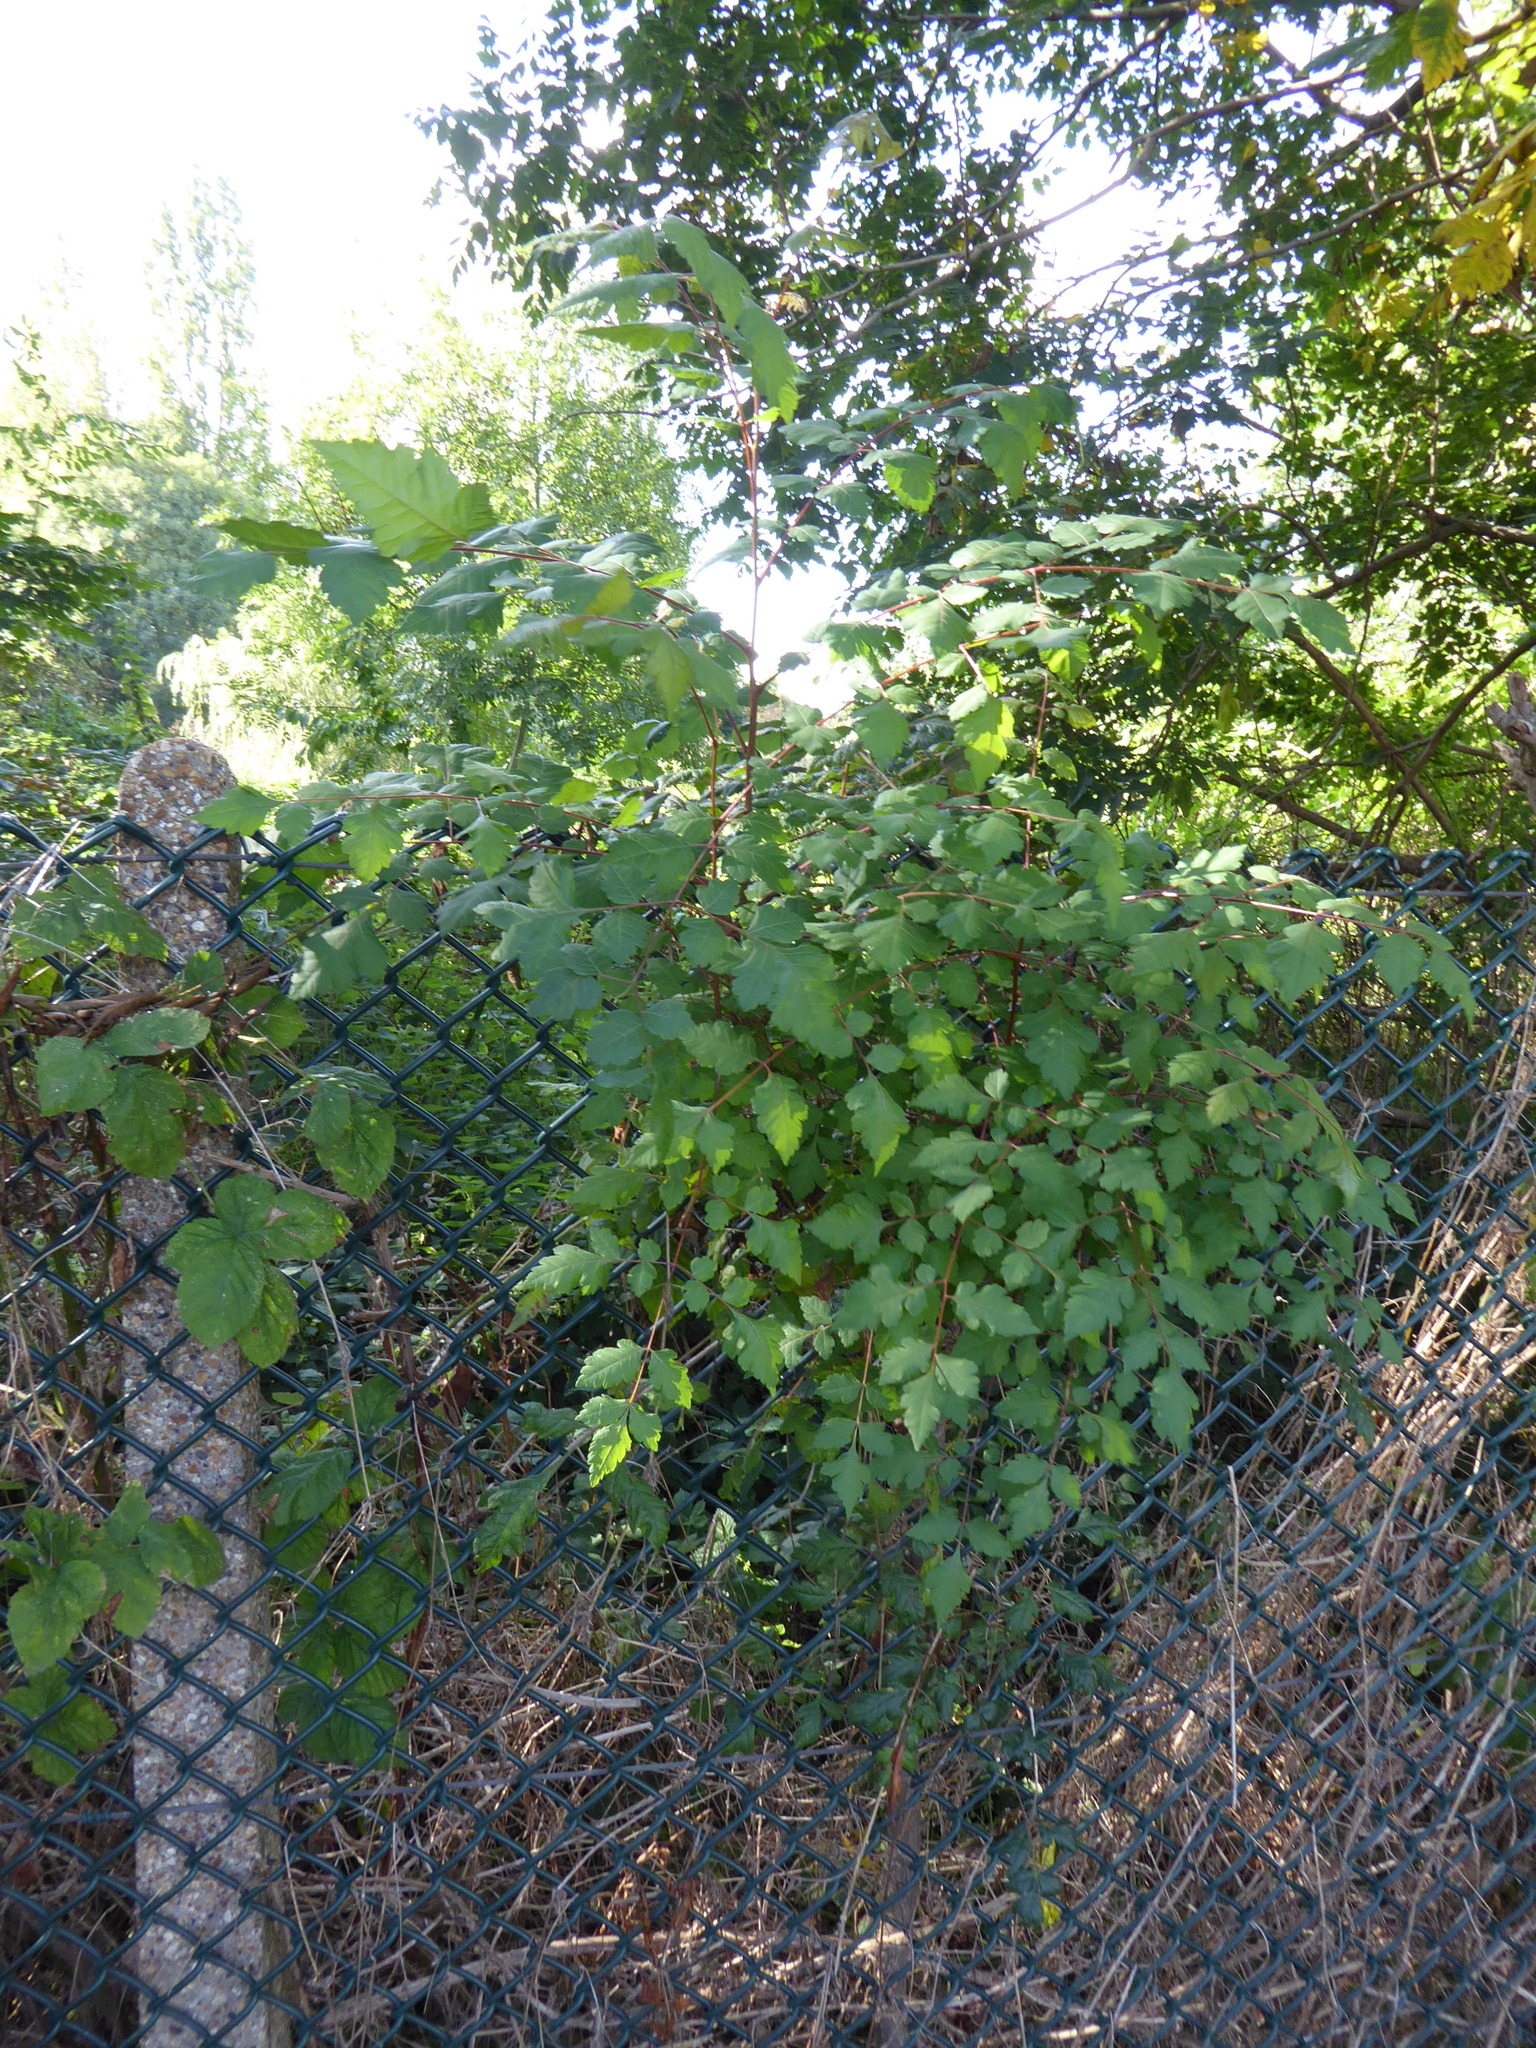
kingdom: Plantae
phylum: Tracheophyta
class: Magnoliopsida
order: Sapindales
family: Sapindaceae
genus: Koelreuteria
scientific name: Koelreuteria paniculata
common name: Pride-of-india
